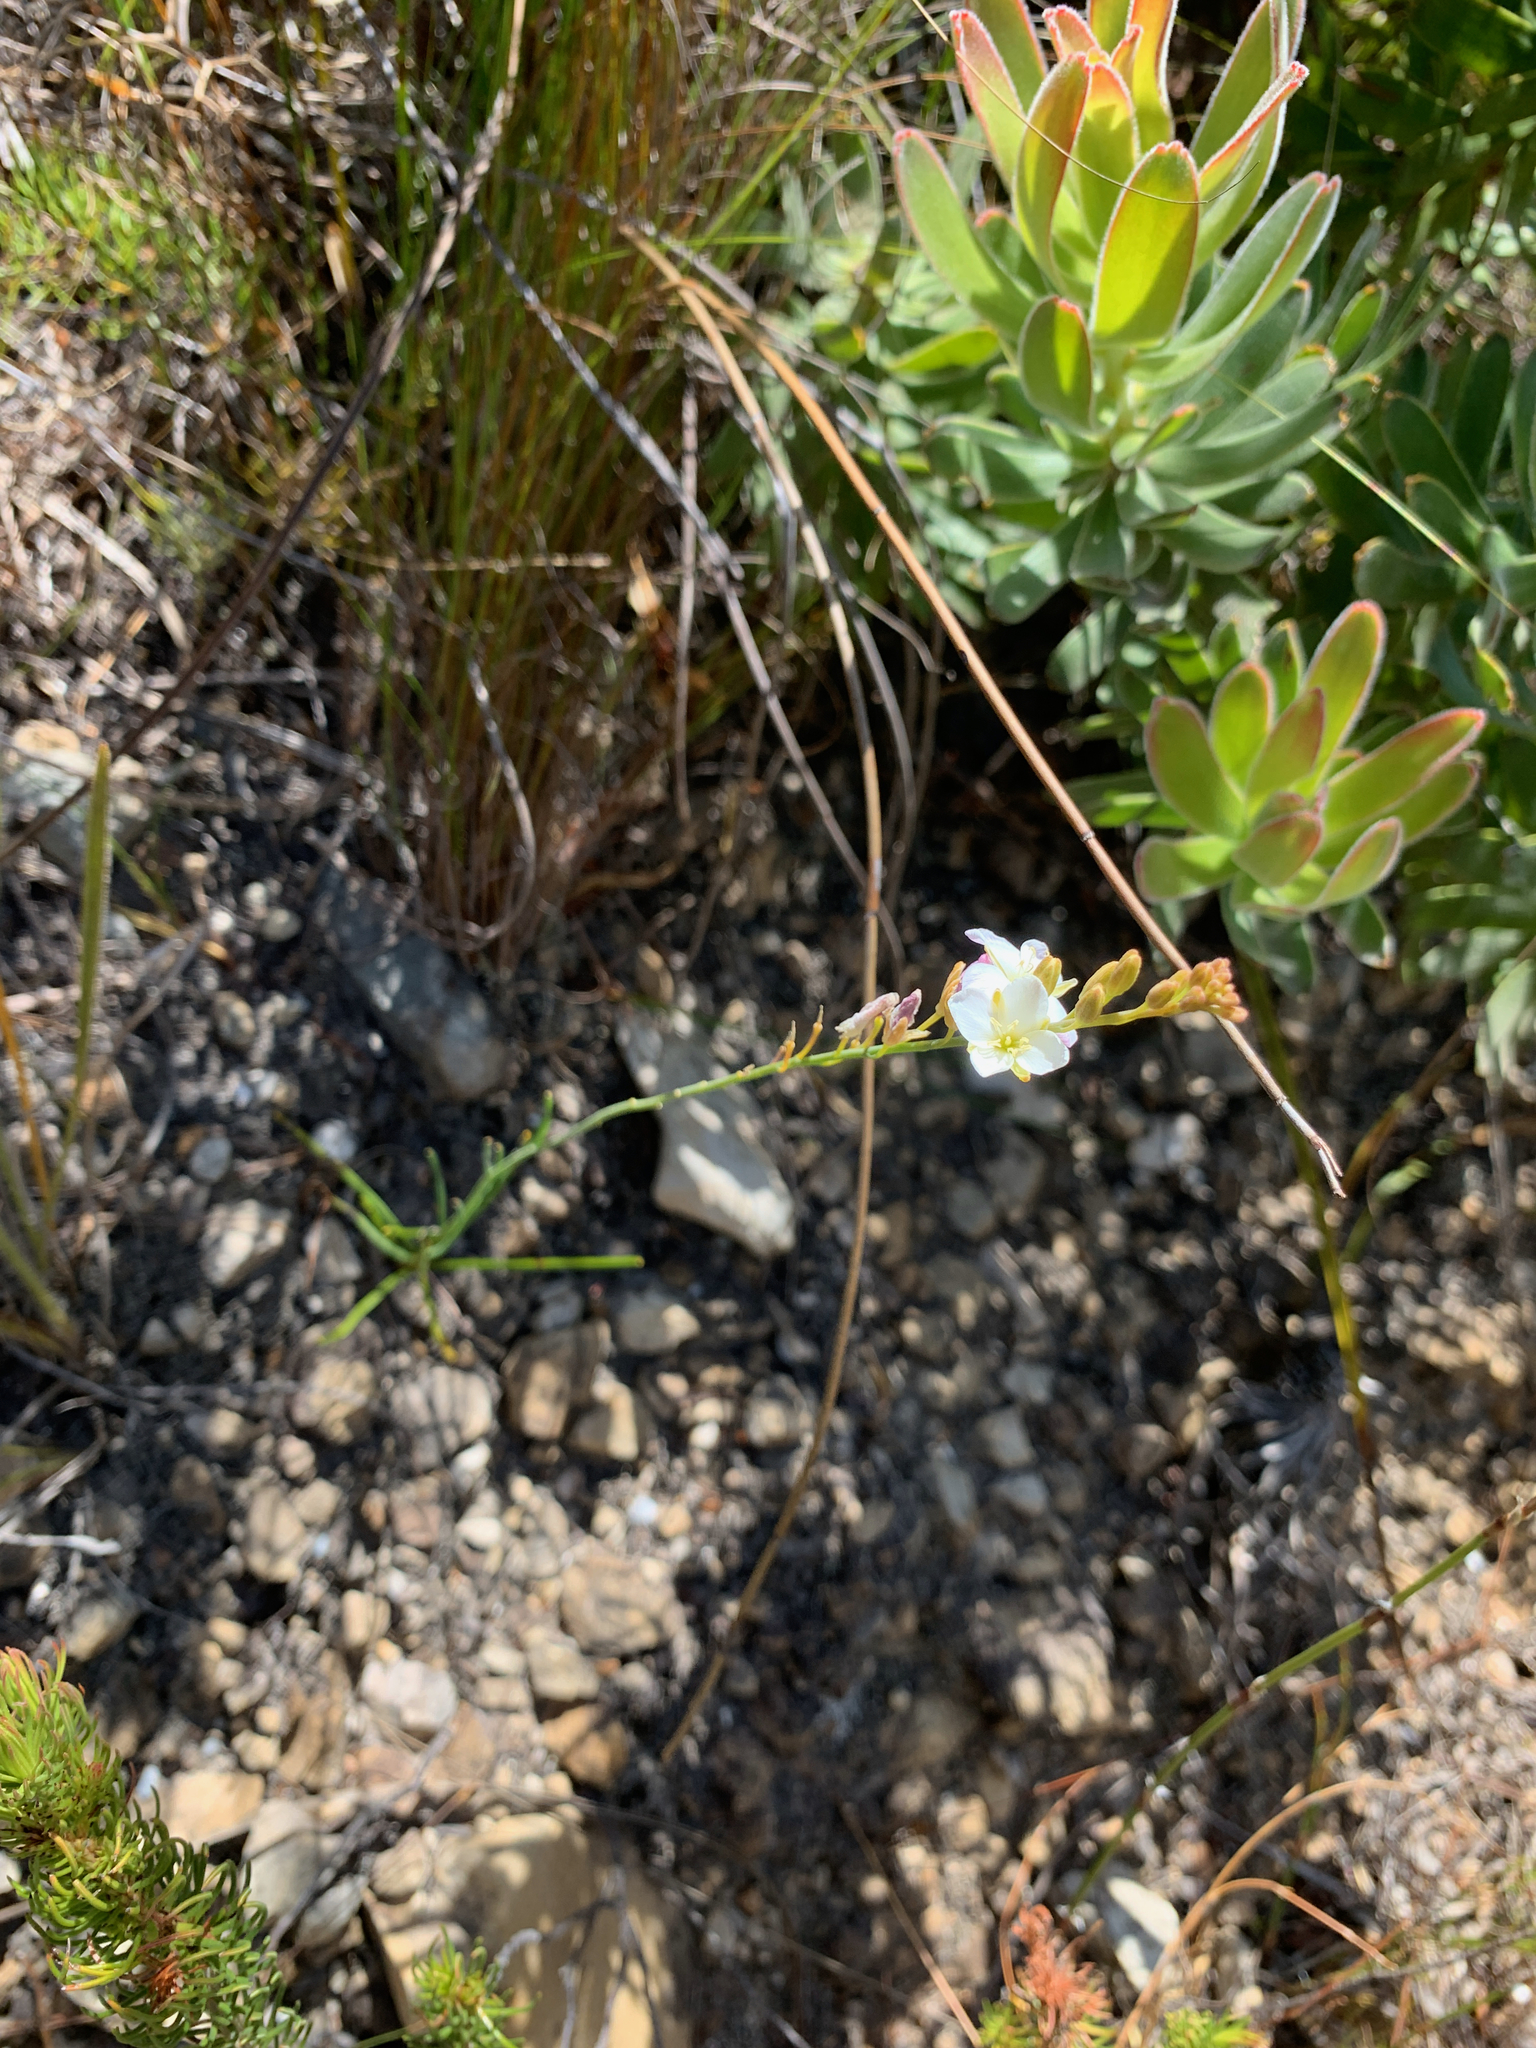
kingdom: Plantae
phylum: Tracheophyta
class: Magnoliopsida
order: Brassicales
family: Brassicaceae
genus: Heliophila
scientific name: Heliophila macra
